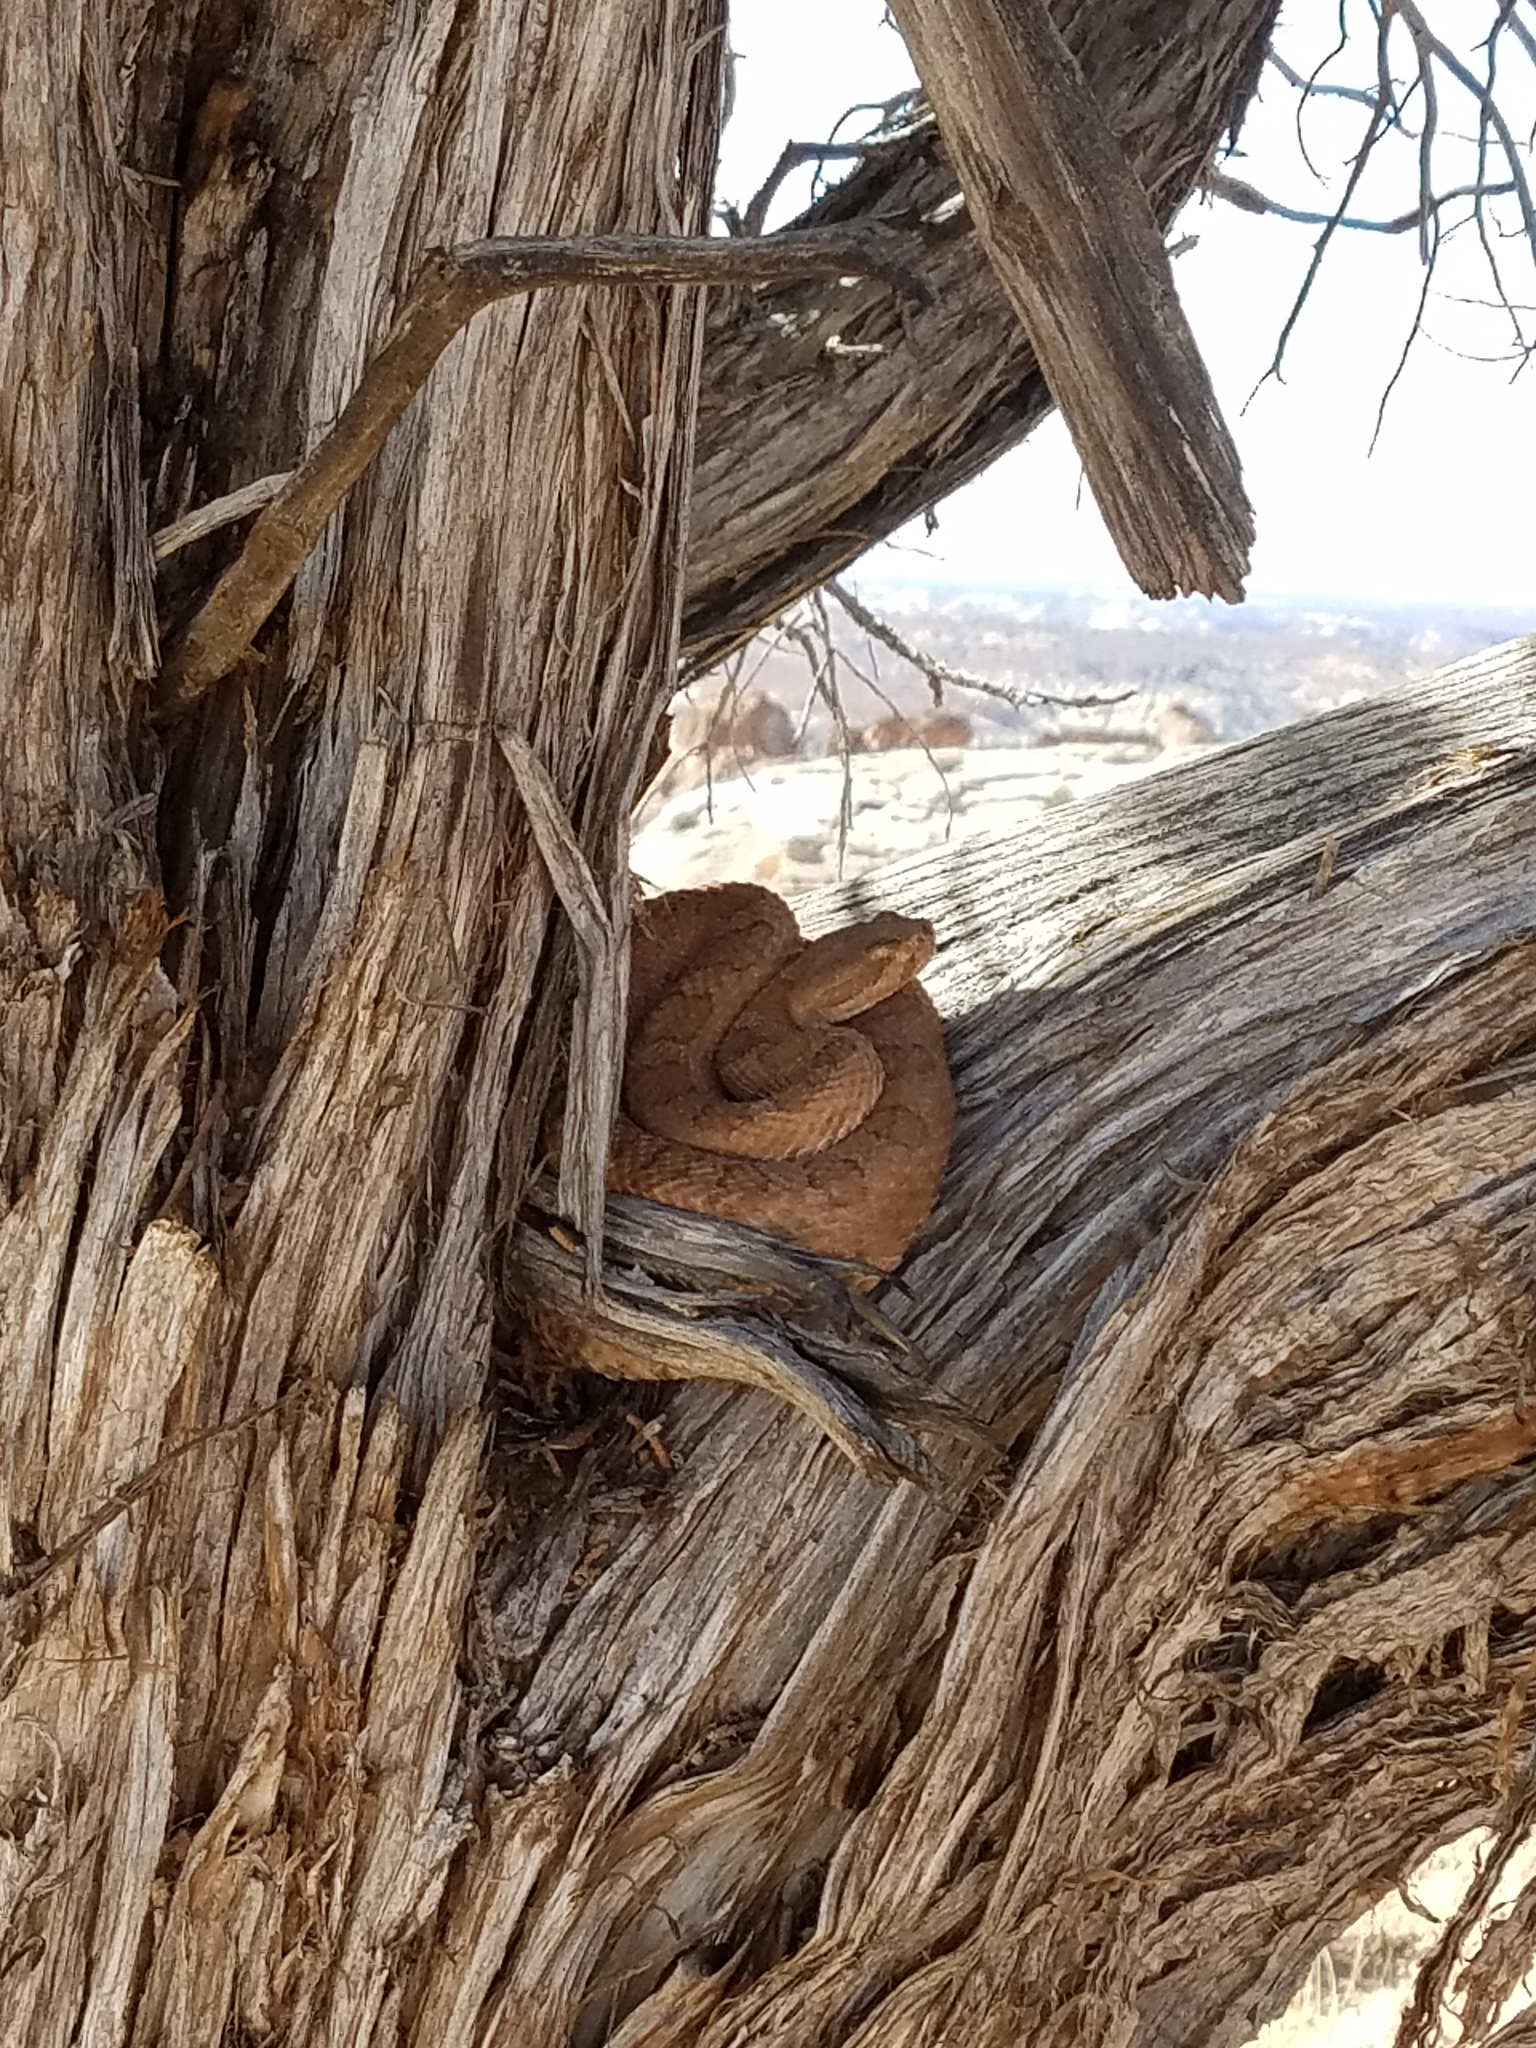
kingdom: Animalia
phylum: Chordata
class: Squamata
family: Viperidae
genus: Crotalus
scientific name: Crotalus oreganus
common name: Abyssus
